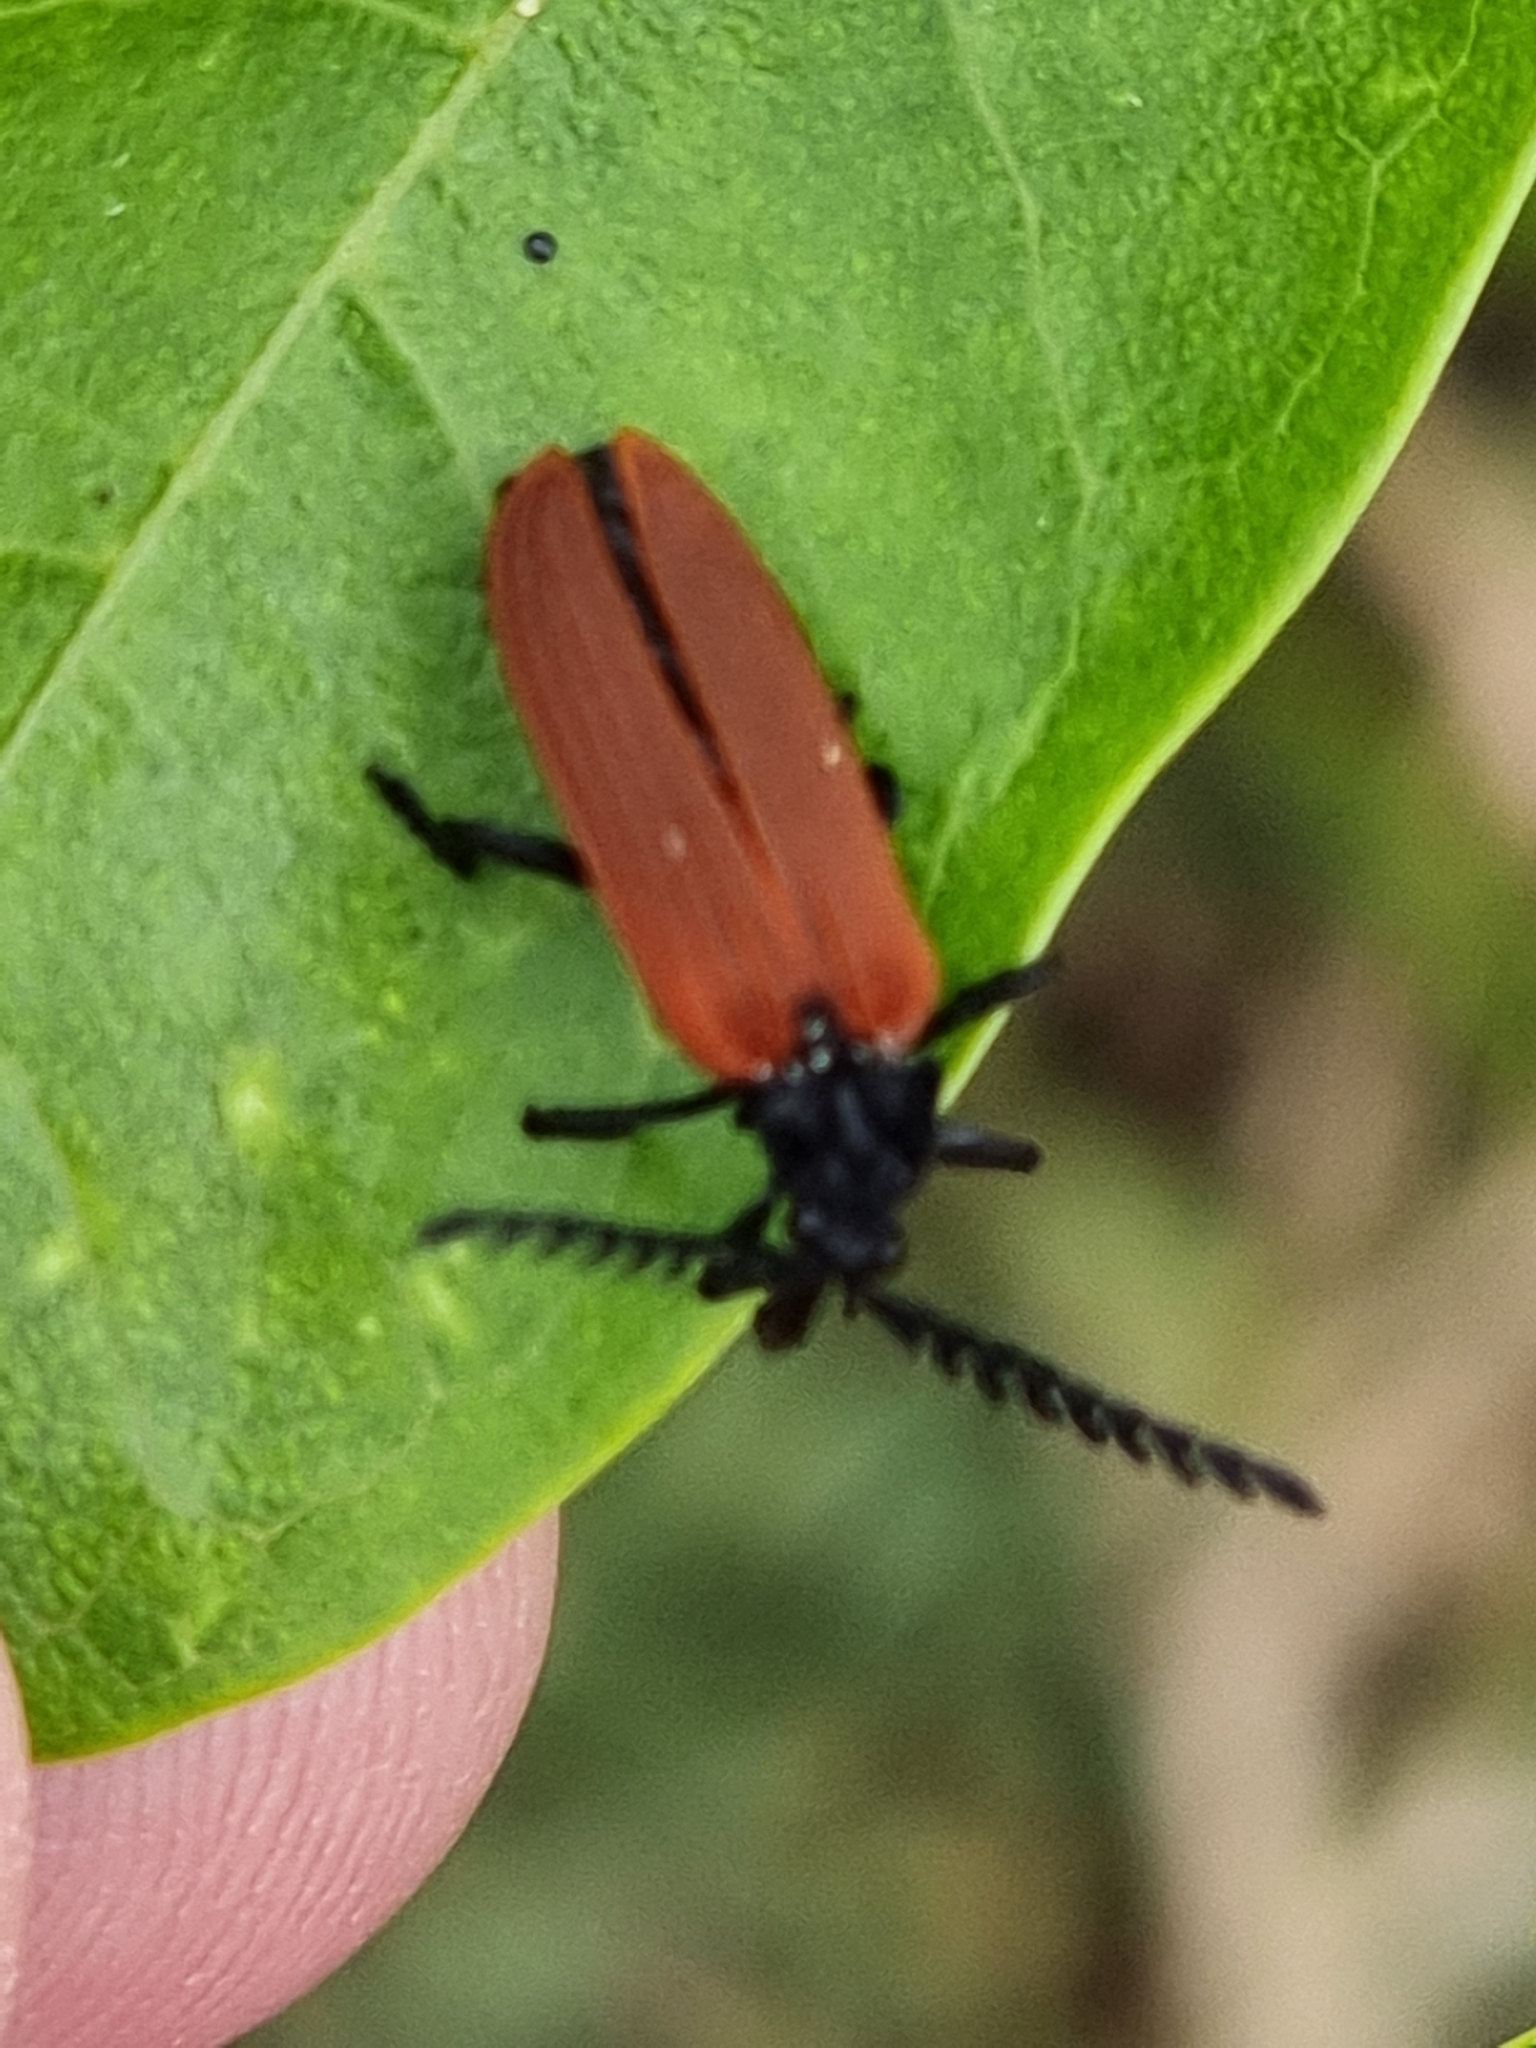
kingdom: Animalia
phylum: Arthropoda
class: Insecta
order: Coleoptera
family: Lycidae
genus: Porrostoma
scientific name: Porrostoma rhipidium
